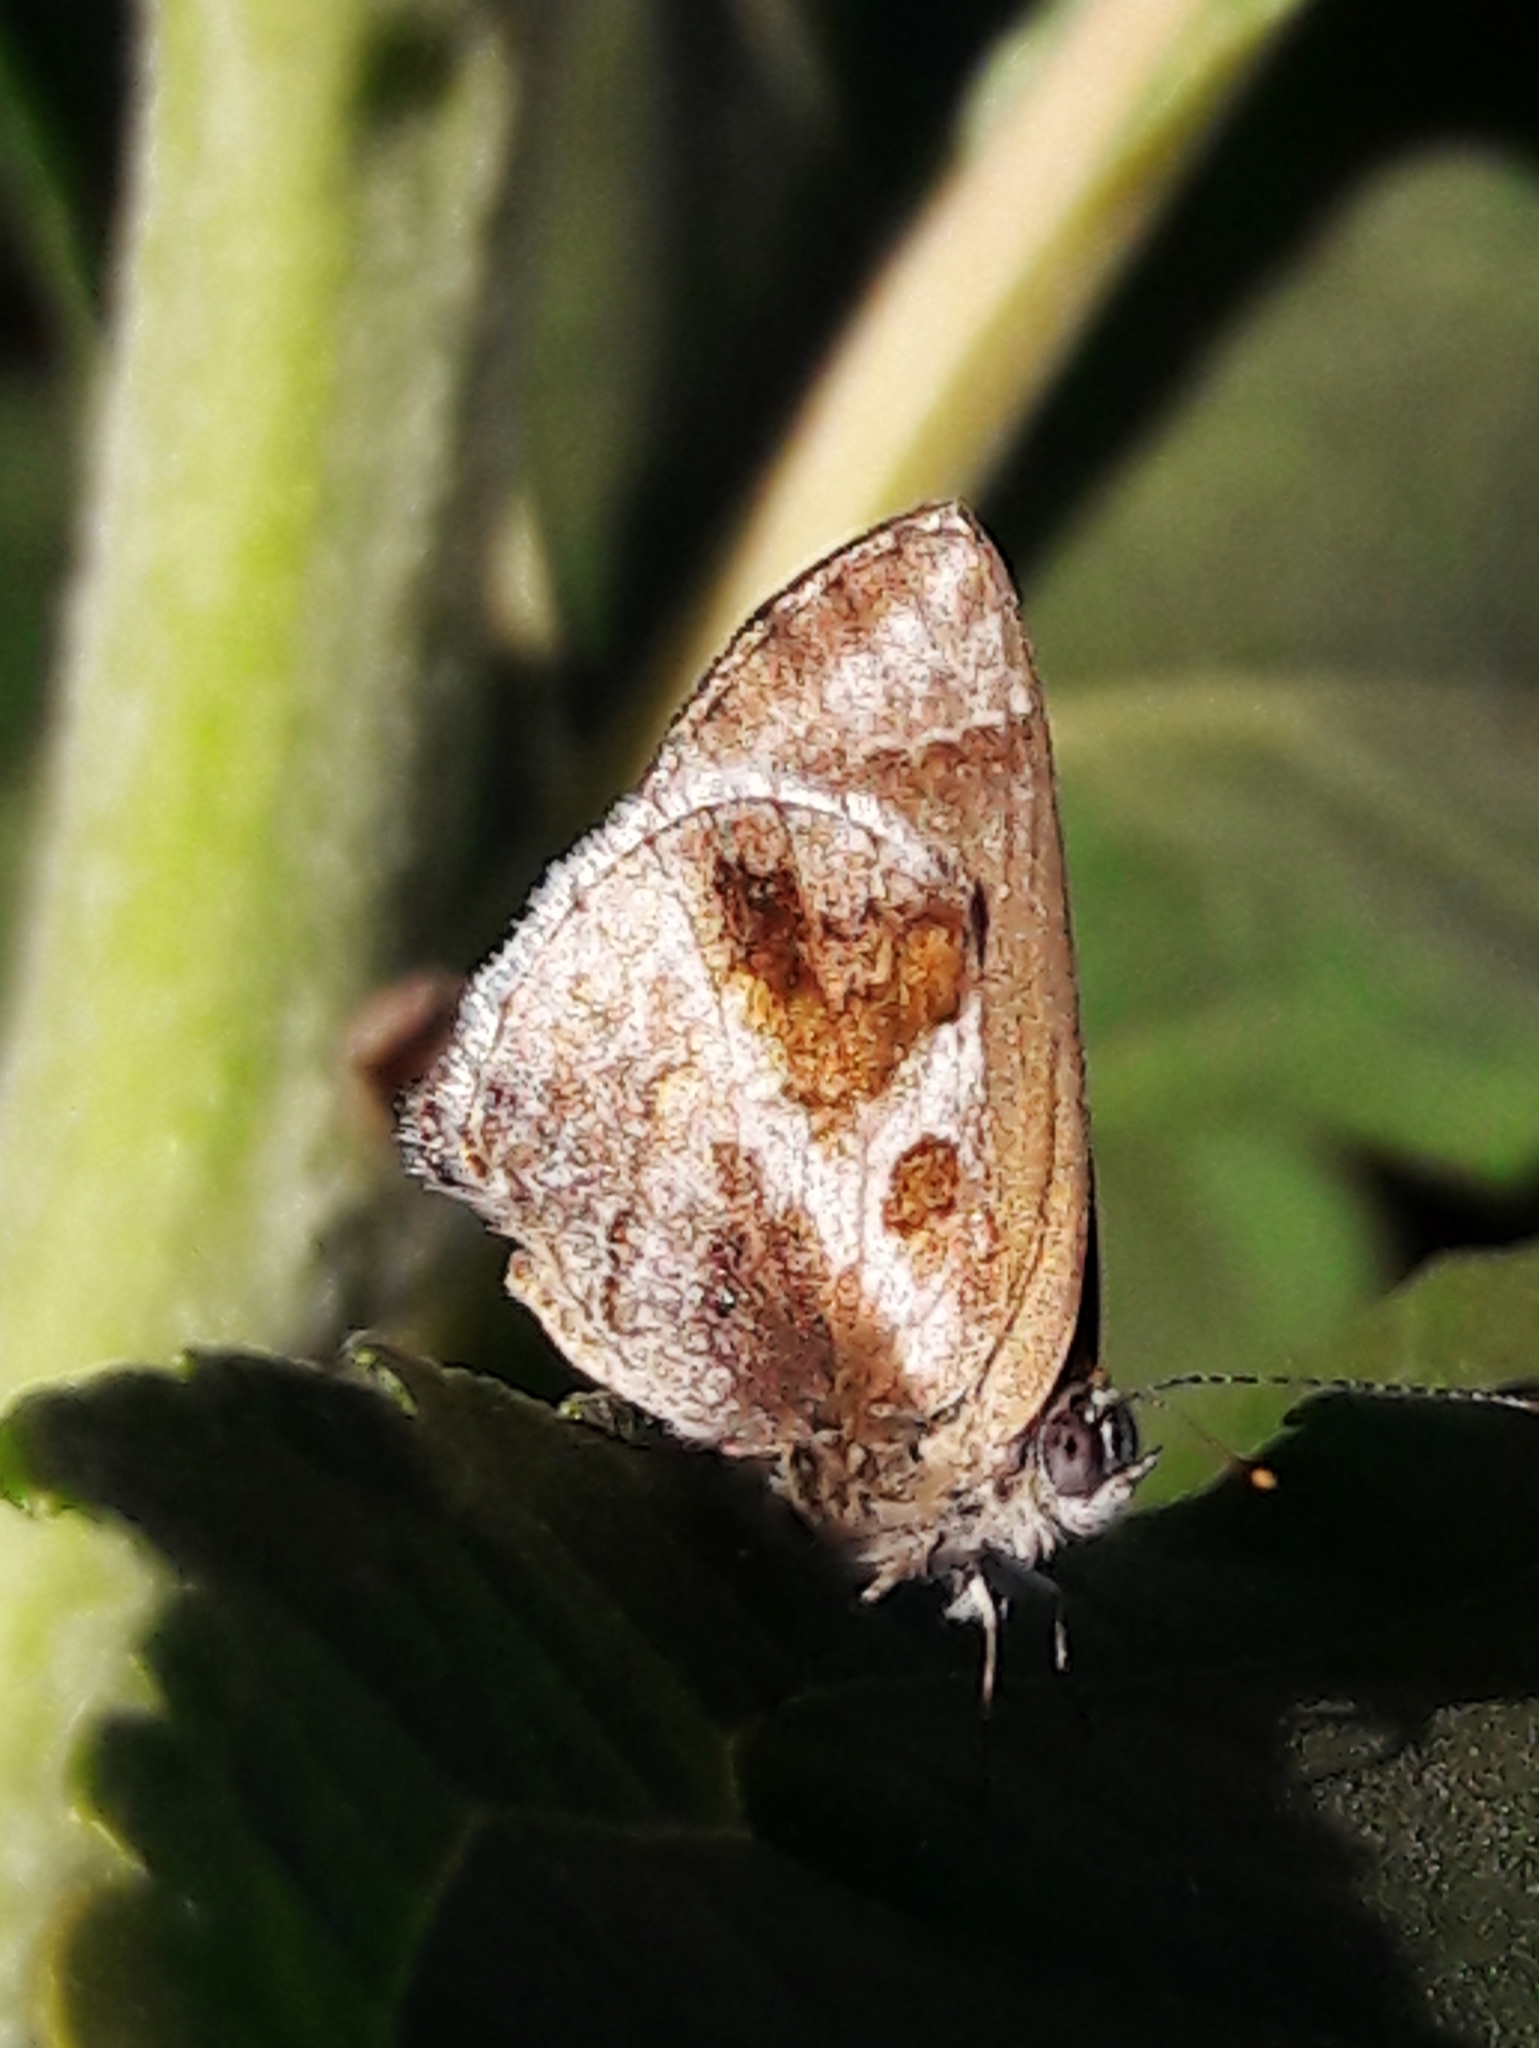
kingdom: Animalia
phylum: Arthropoda
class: Insecta
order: Lepidoptera
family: Lycaenidae
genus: Strymon
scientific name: Strymon bazochii
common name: Lantana scrub-hairstreak
